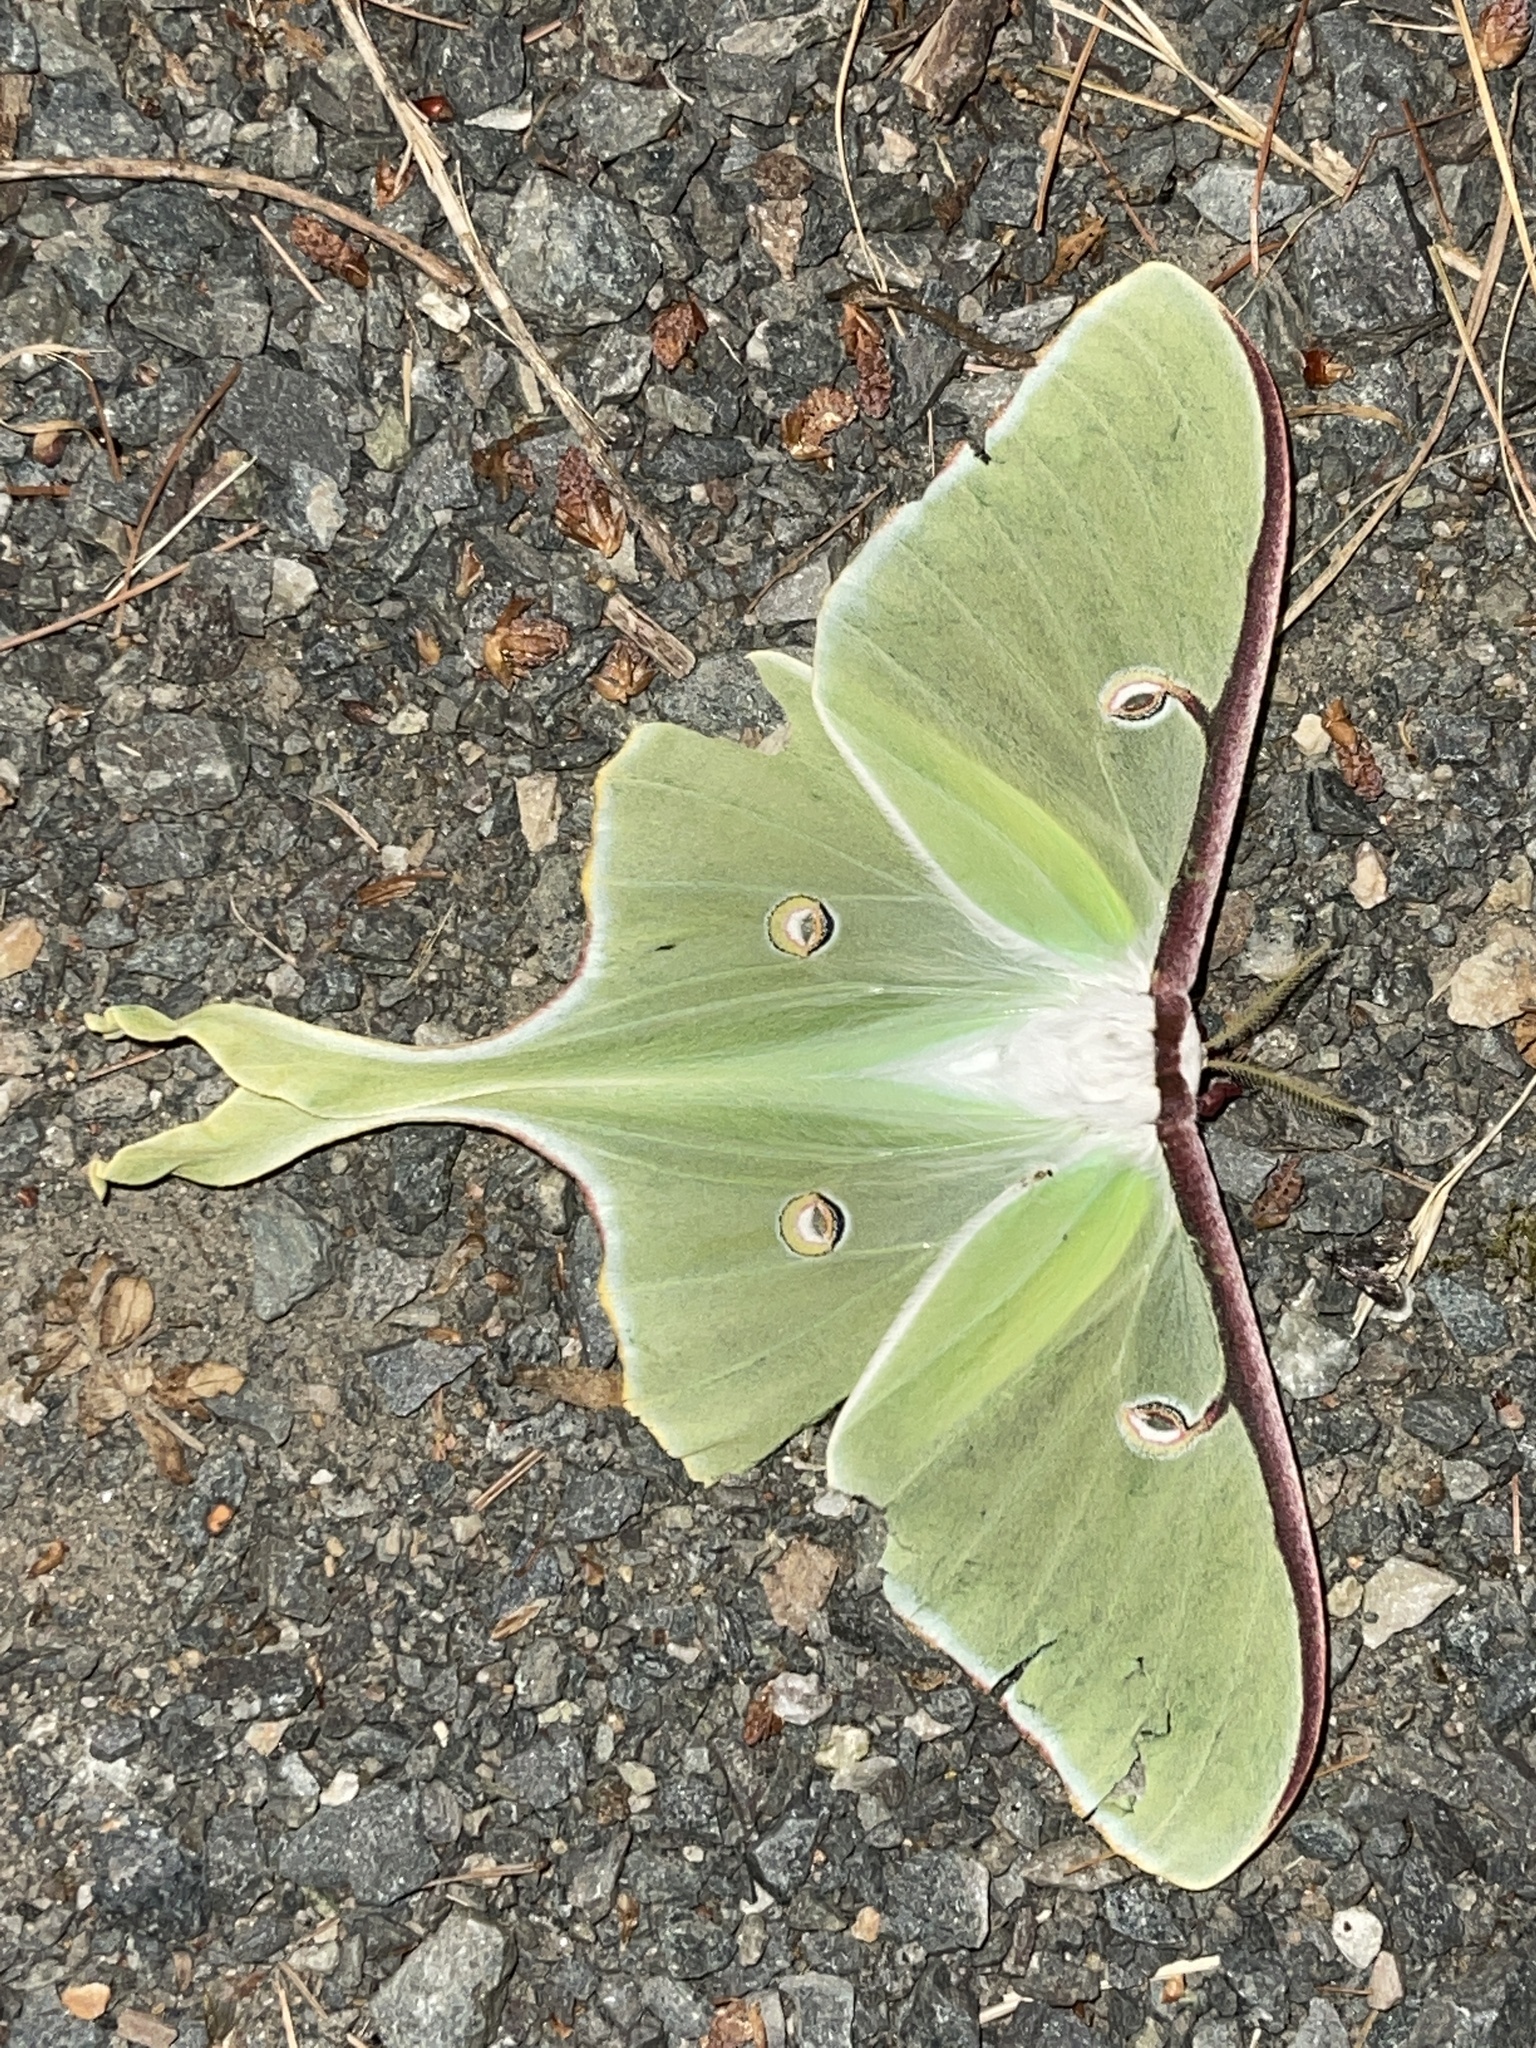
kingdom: Animalia
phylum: Arthropoda
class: Insecta
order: Lepidoptera
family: Saturniidae
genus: Actias
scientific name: Actias luna
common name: Luna moth
